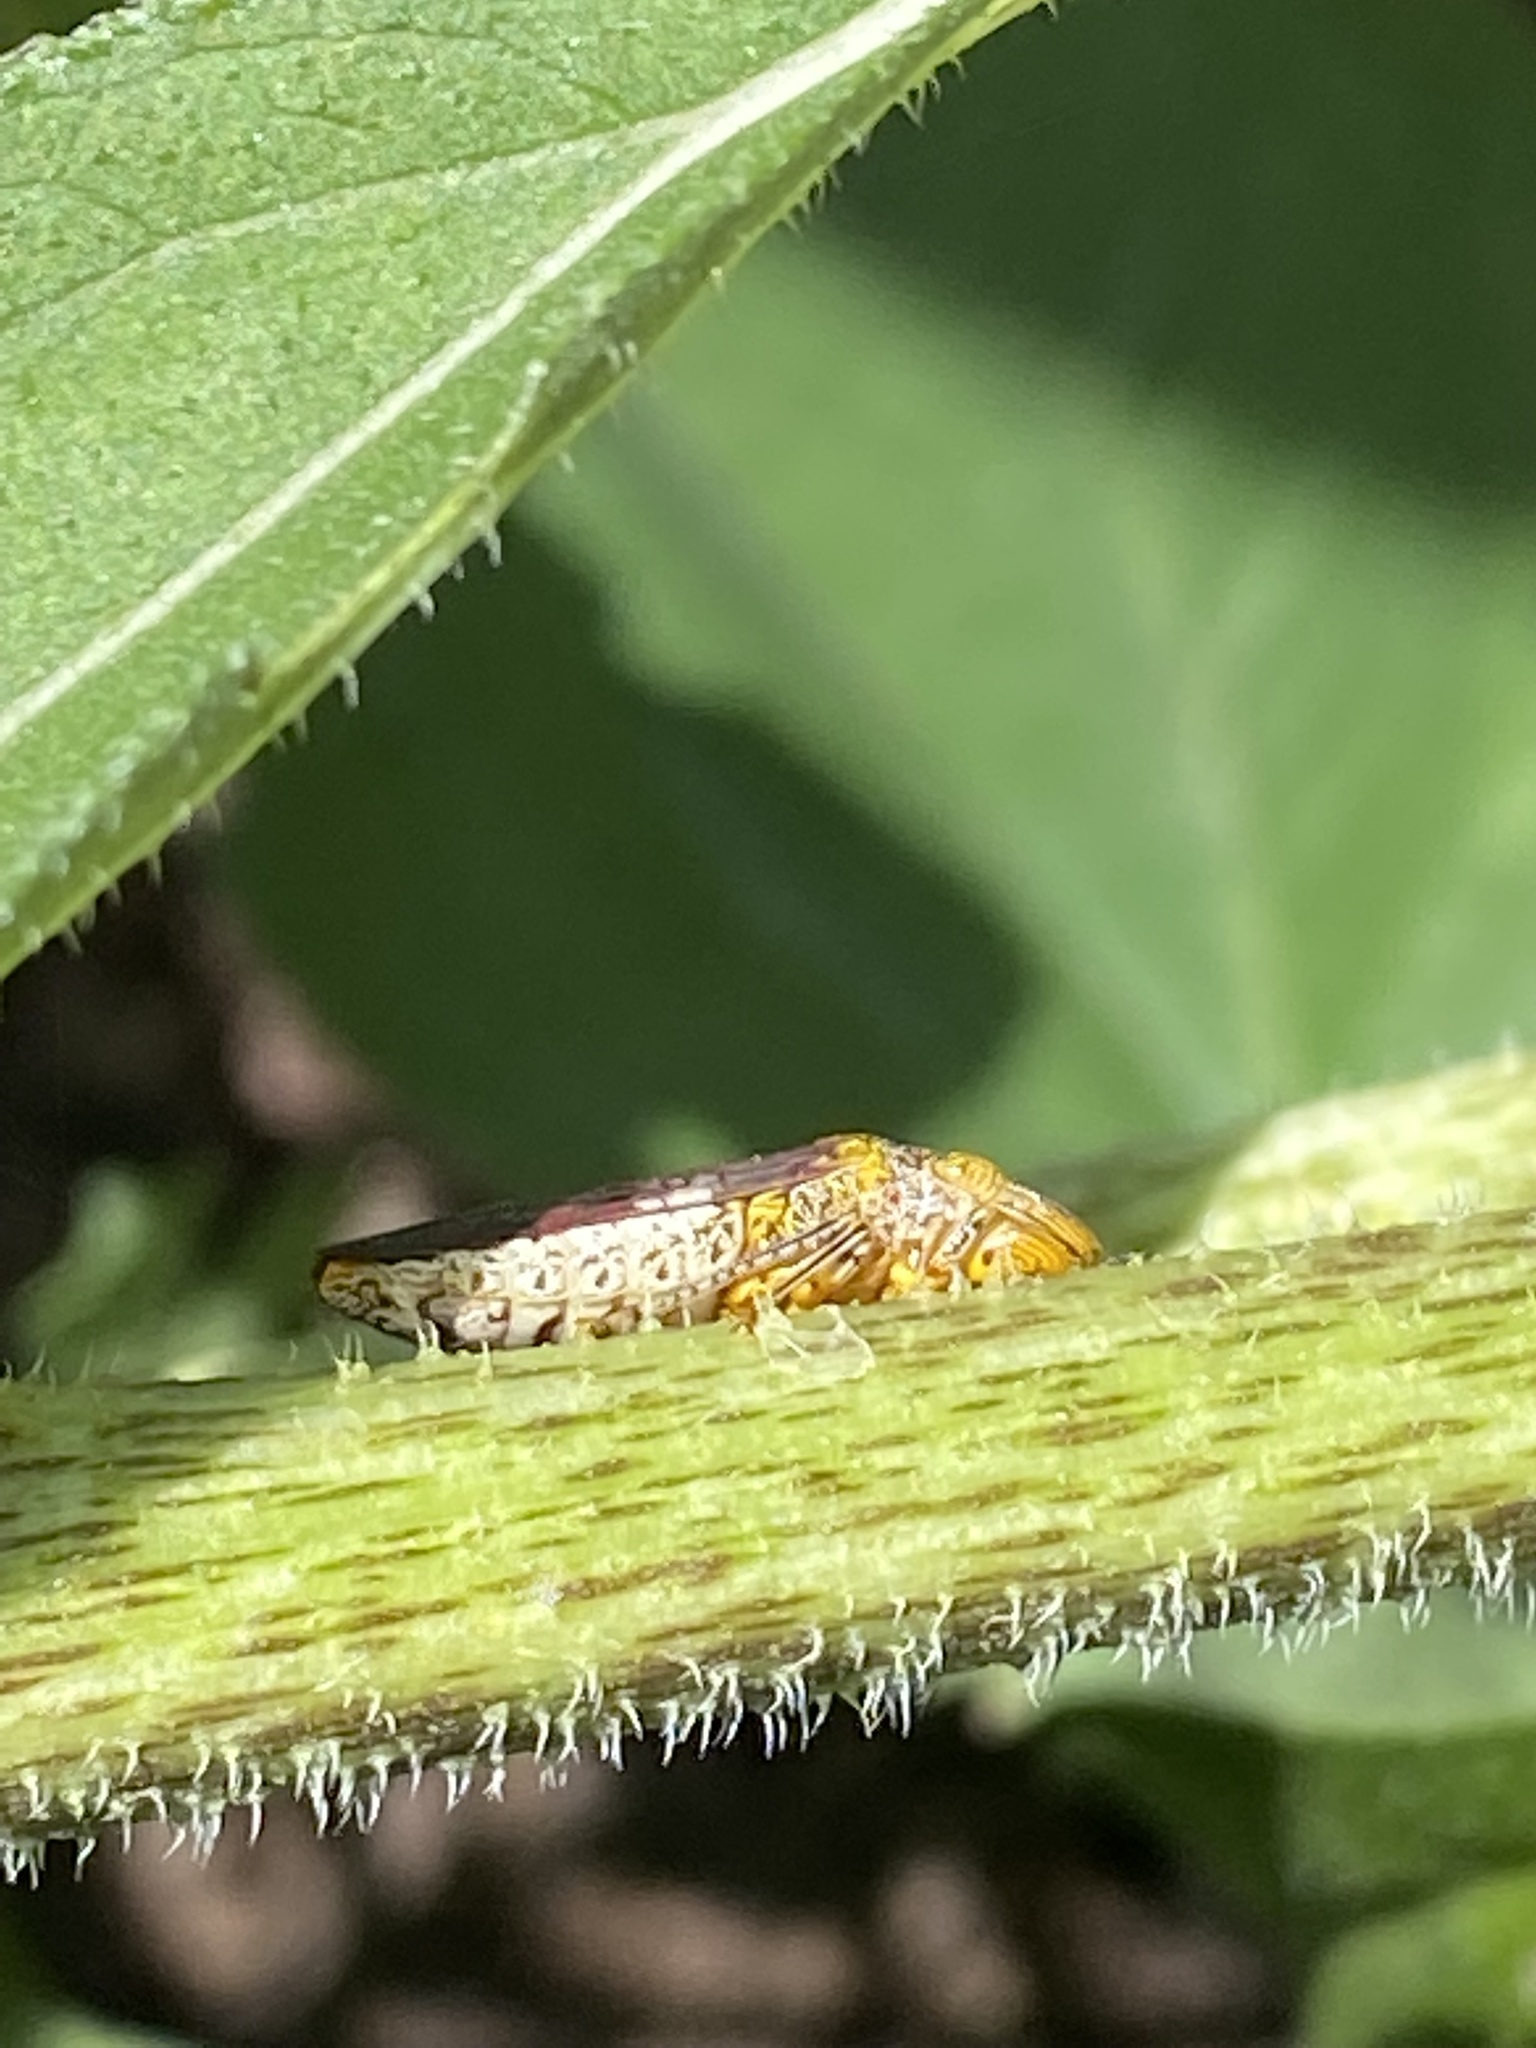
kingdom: Animalia
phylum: Arthropoda
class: Insecta
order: Hemiptera
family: Cicadellidae
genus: Homalodisca
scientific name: Homalodisca vitripennis
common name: Glassy-winged sharpshooter
